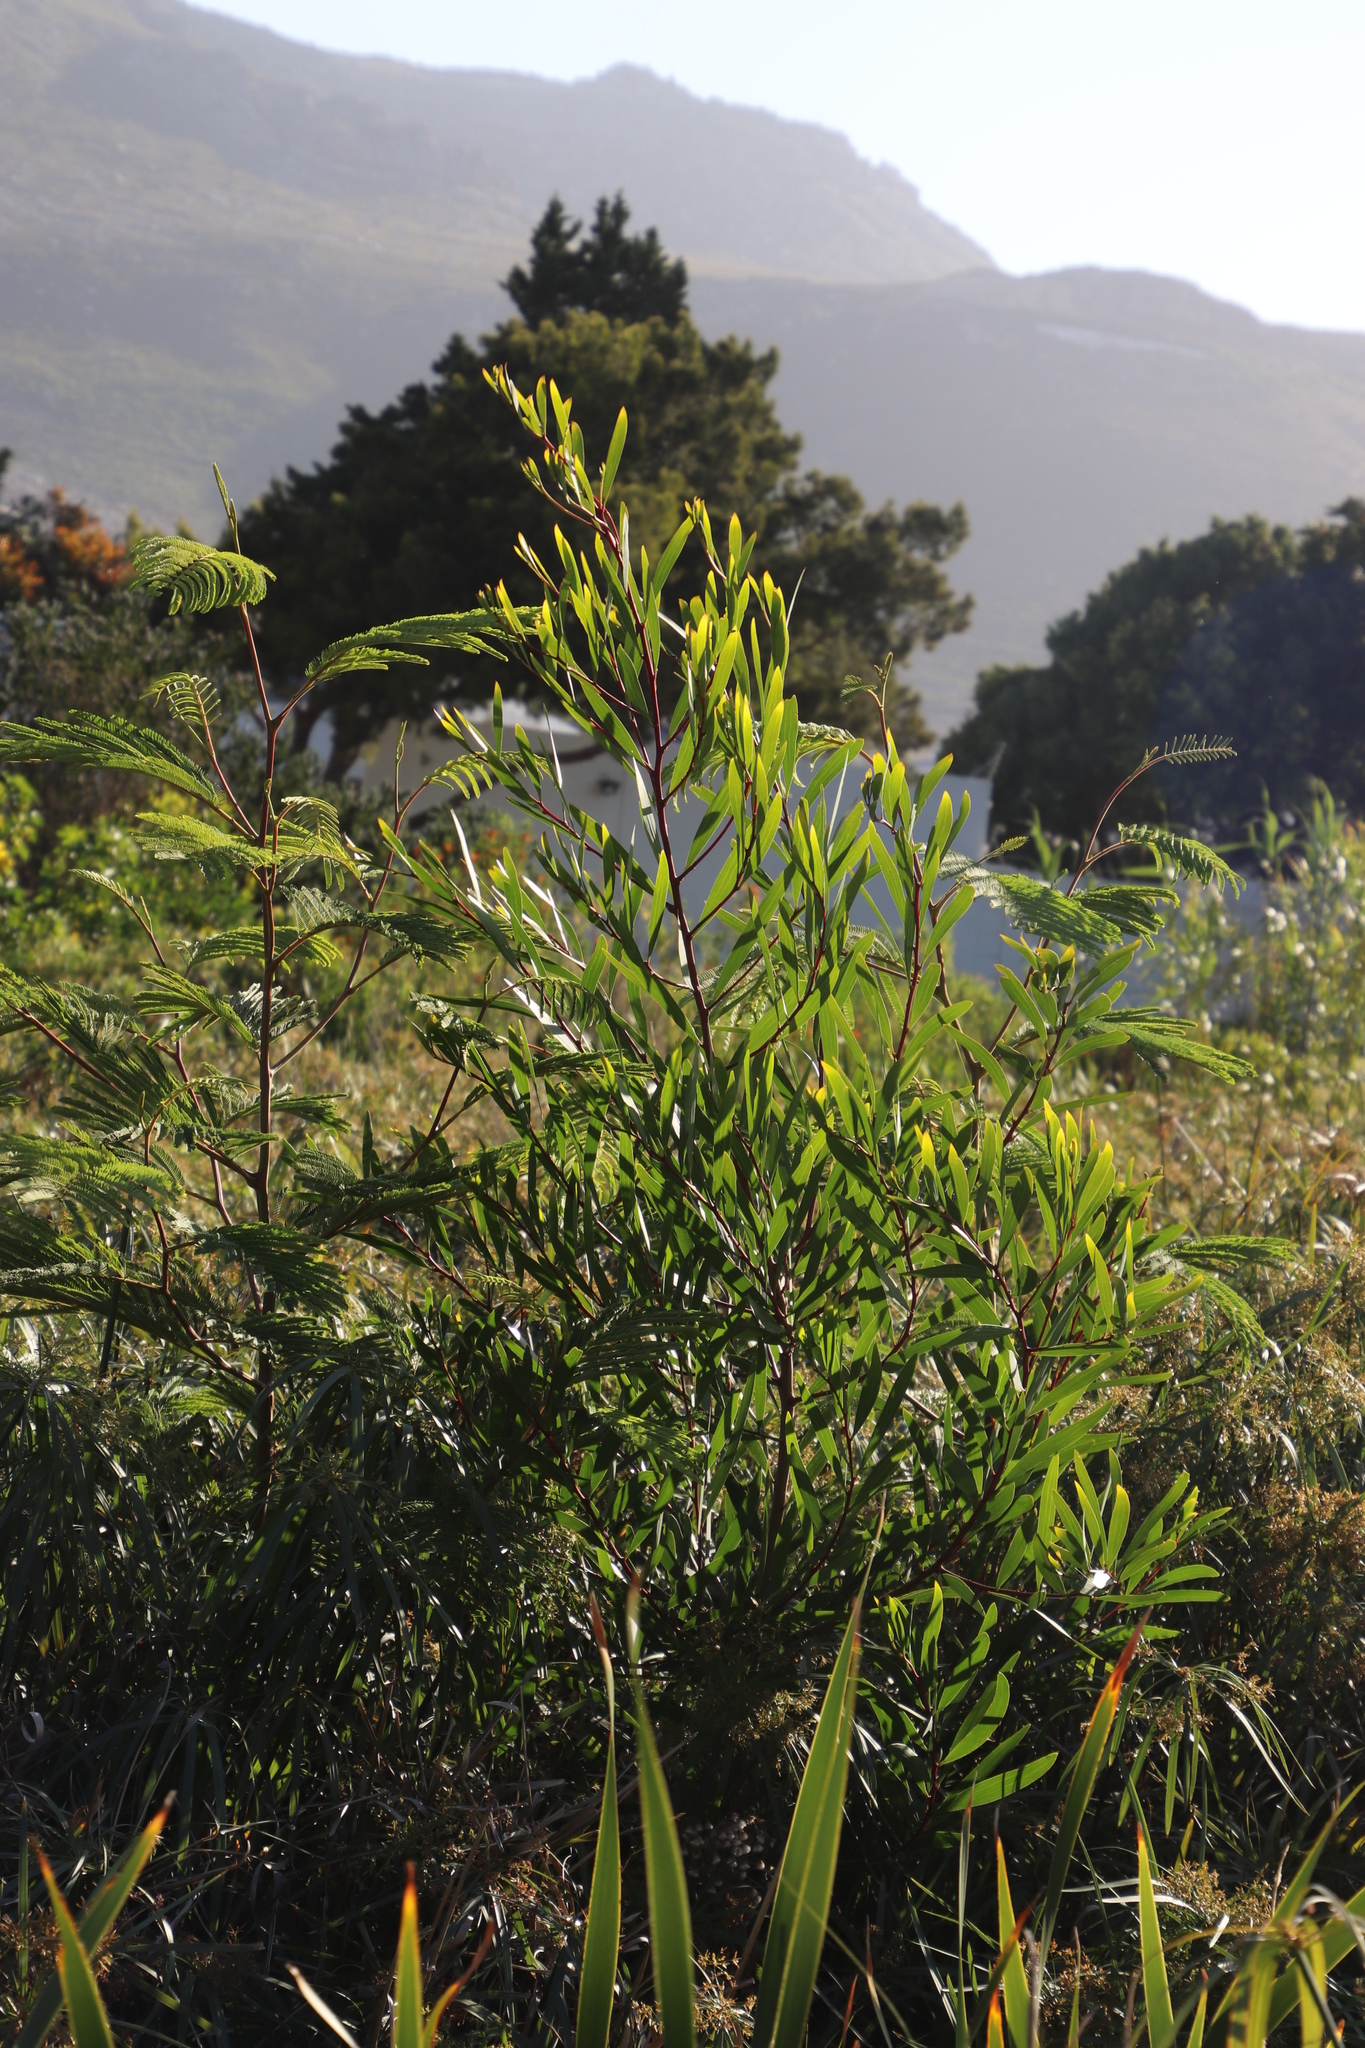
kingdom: Plantae
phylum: Tracheophyta
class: Magnoliopsida
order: Fabales
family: Fabaceae
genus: Acacia
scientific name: Acacia longifolia
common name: Sydney golden wattle
